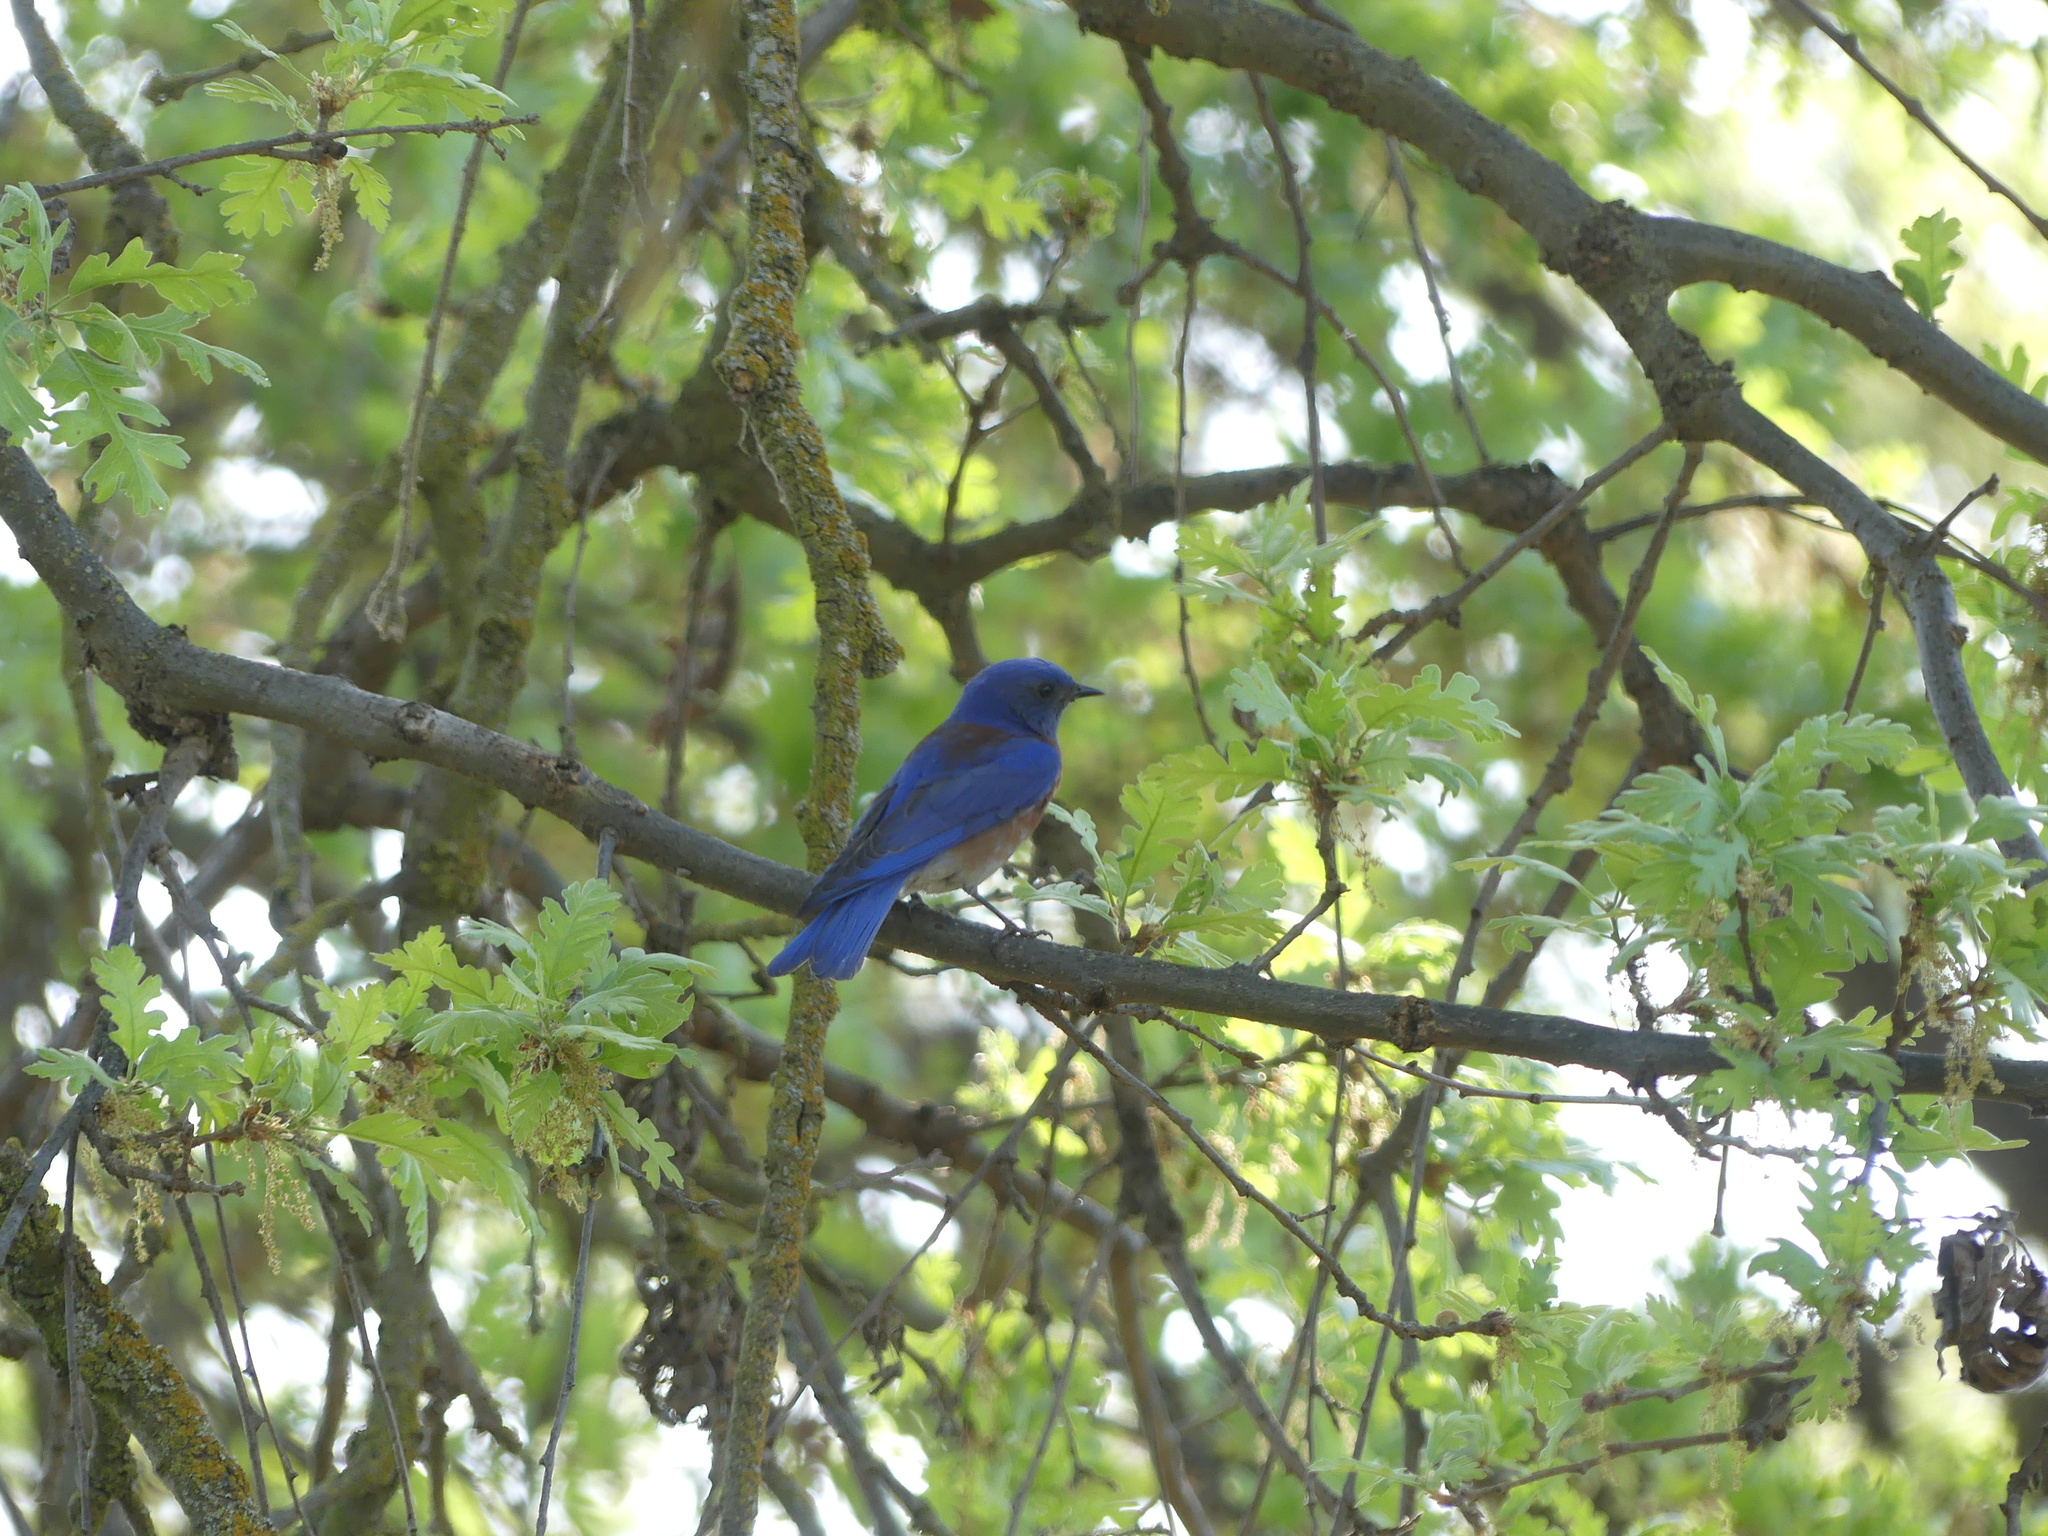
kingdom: Animalia
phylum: Chordata
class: Aves
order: Passeriformes
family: Turdidae
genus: Sialia
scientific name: Sialia mexicana
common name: Western bluebird
